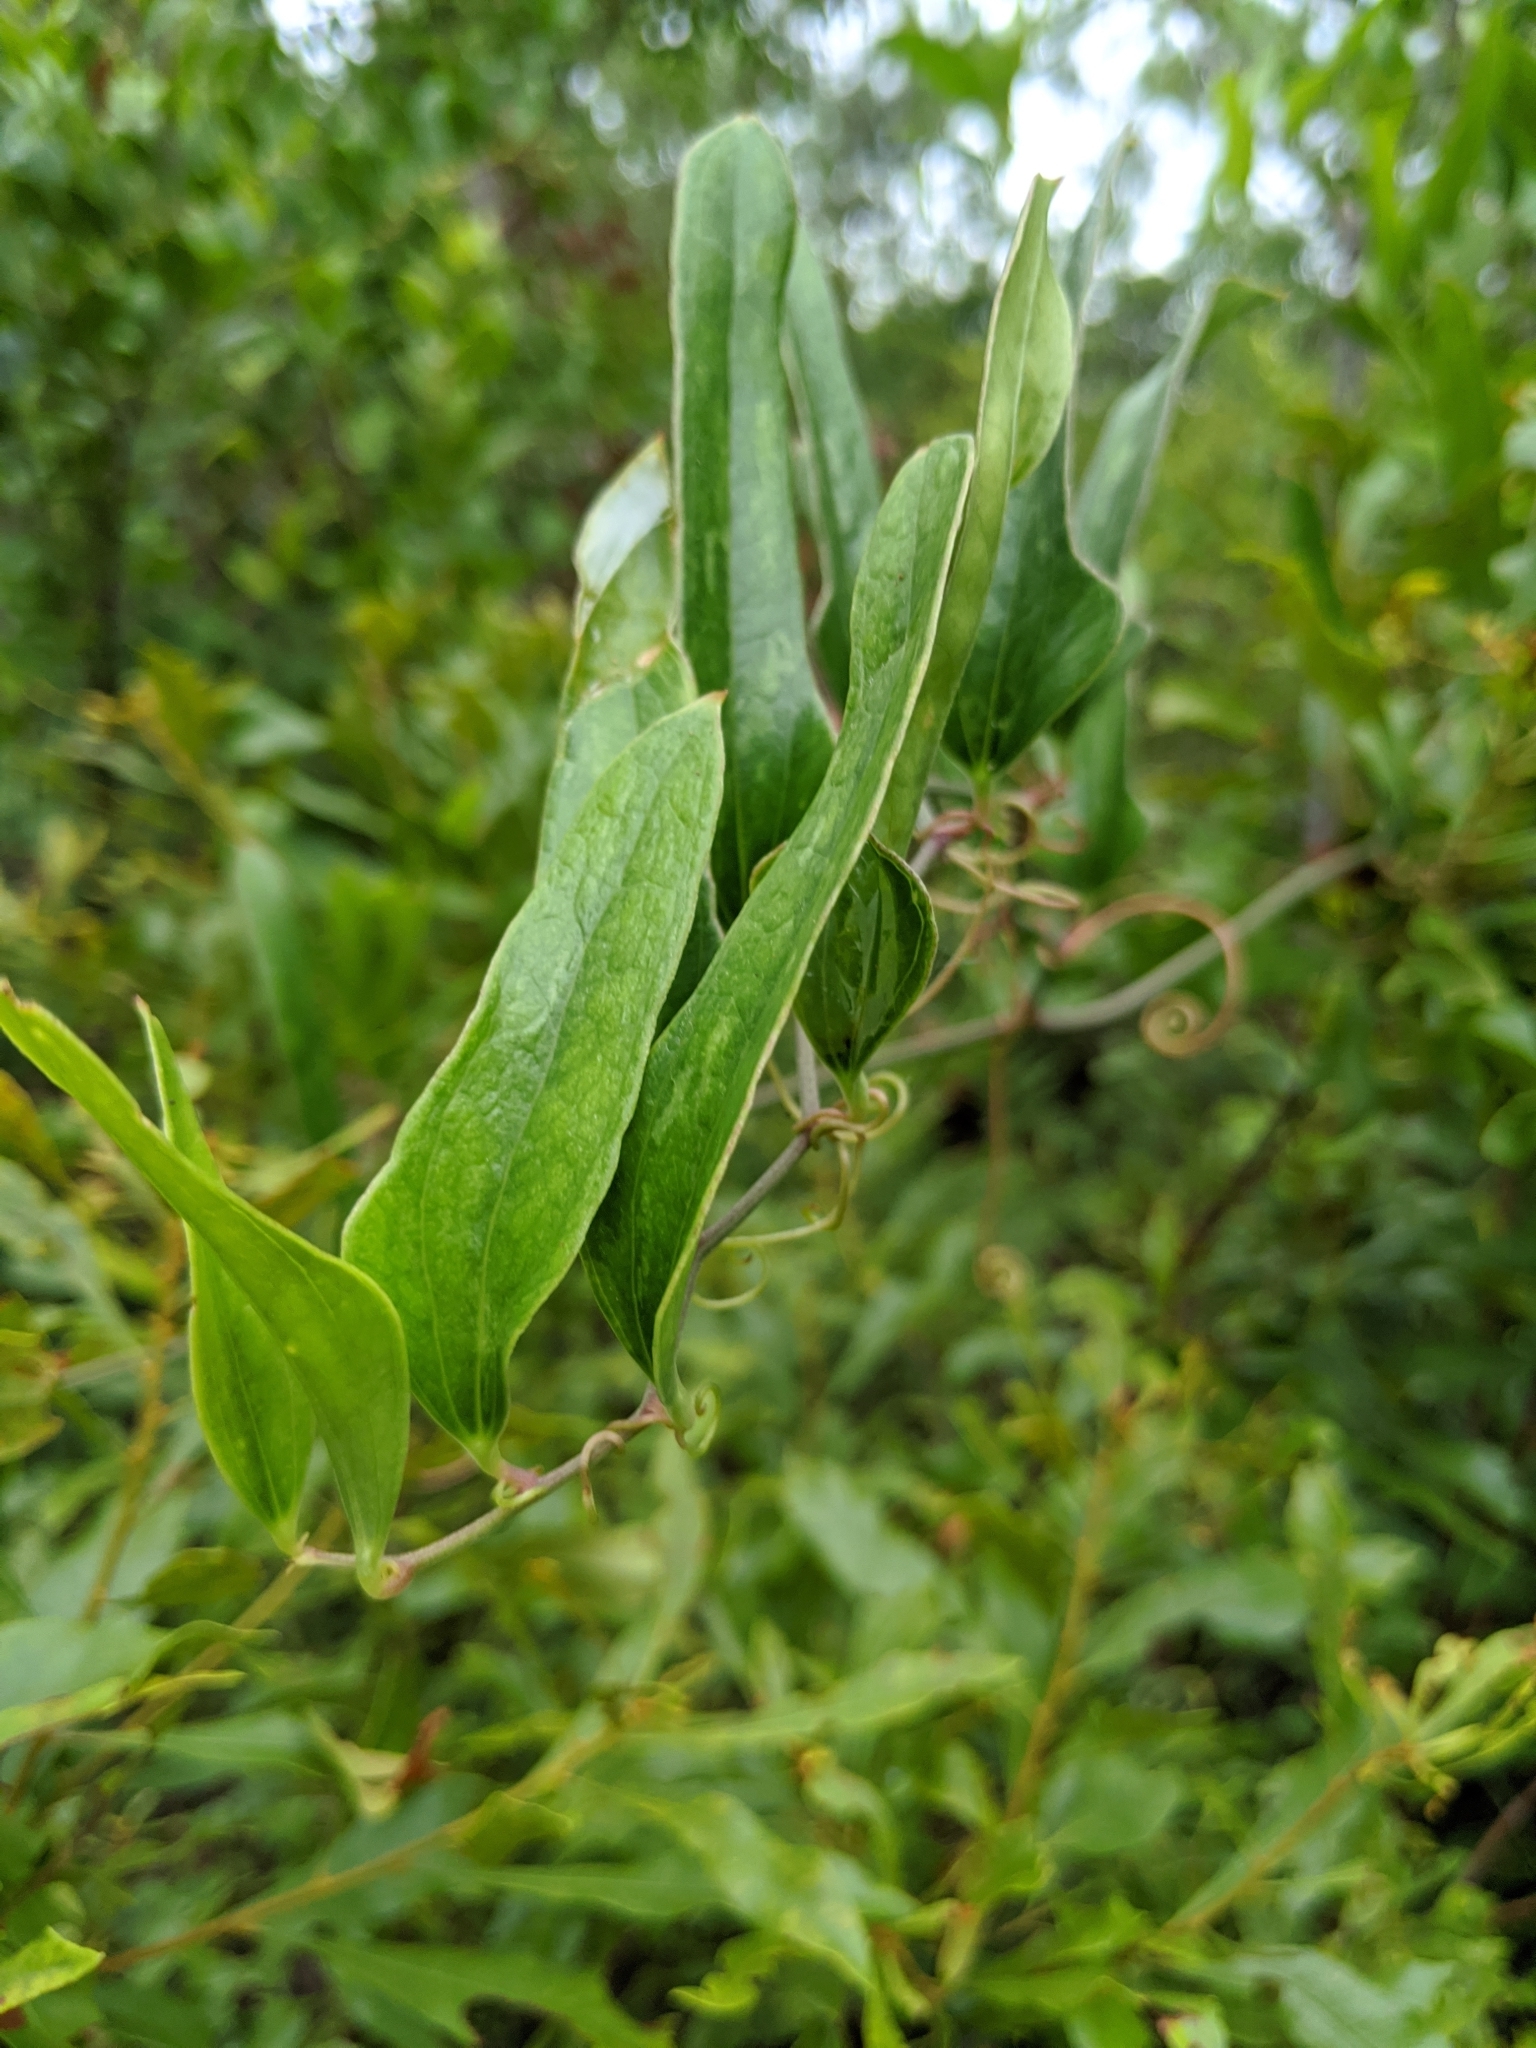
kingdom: Plantae
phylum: Tracheophyta
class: Liliopsida
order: Liliales
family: Smilacaceae
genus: Smilax
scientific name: Smilax auriculata
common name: Wild bamboo
